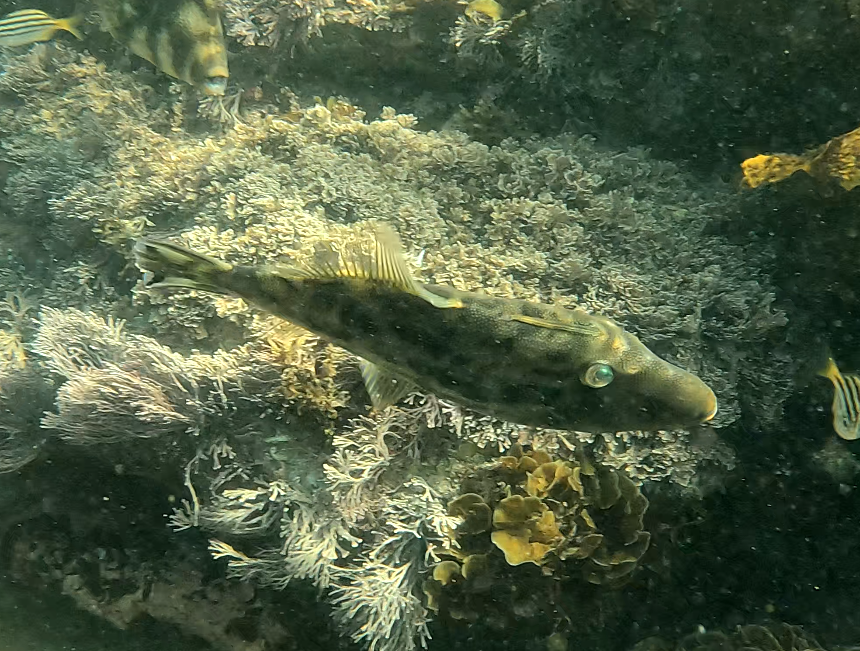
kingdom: Animalia
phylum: Chordata
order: Tetraodontiformes
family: Monacanthidae
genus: Scobinichthys
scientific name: Scobinichthys granulatus
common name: Rough leatherjacket
